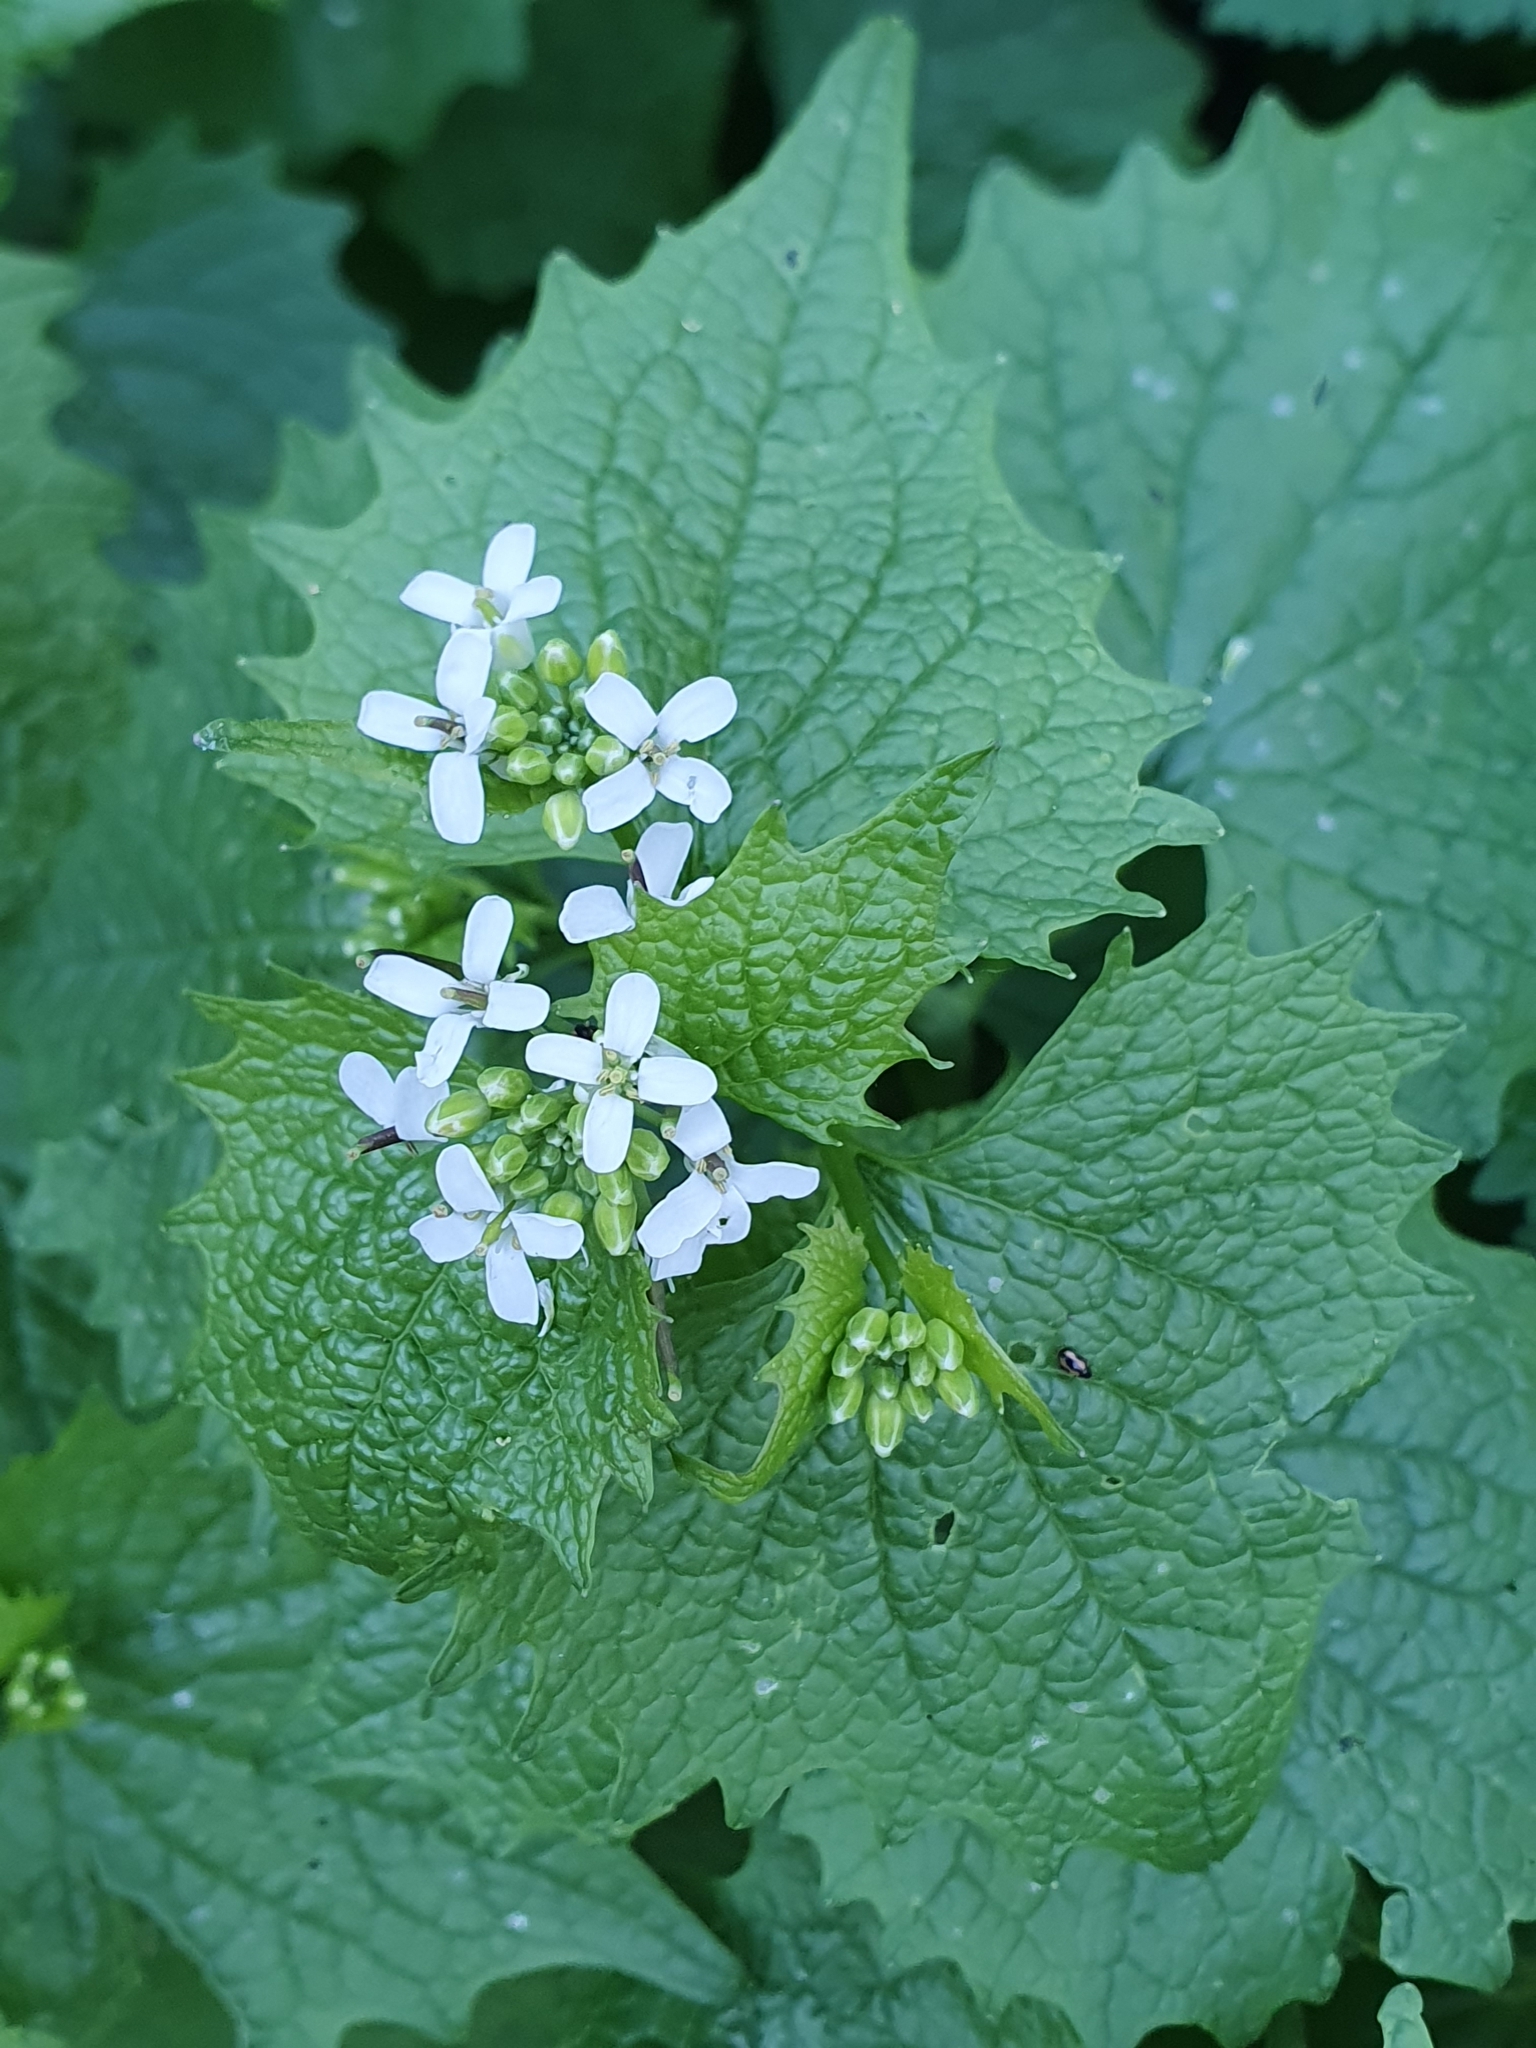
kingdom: Plantae
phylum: Tracheophyta
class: Magnoliopsida
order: Brassicales
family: Brassicaceae
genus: Alliaria
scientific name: Alliaria petiolata
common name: Garlic mustard
